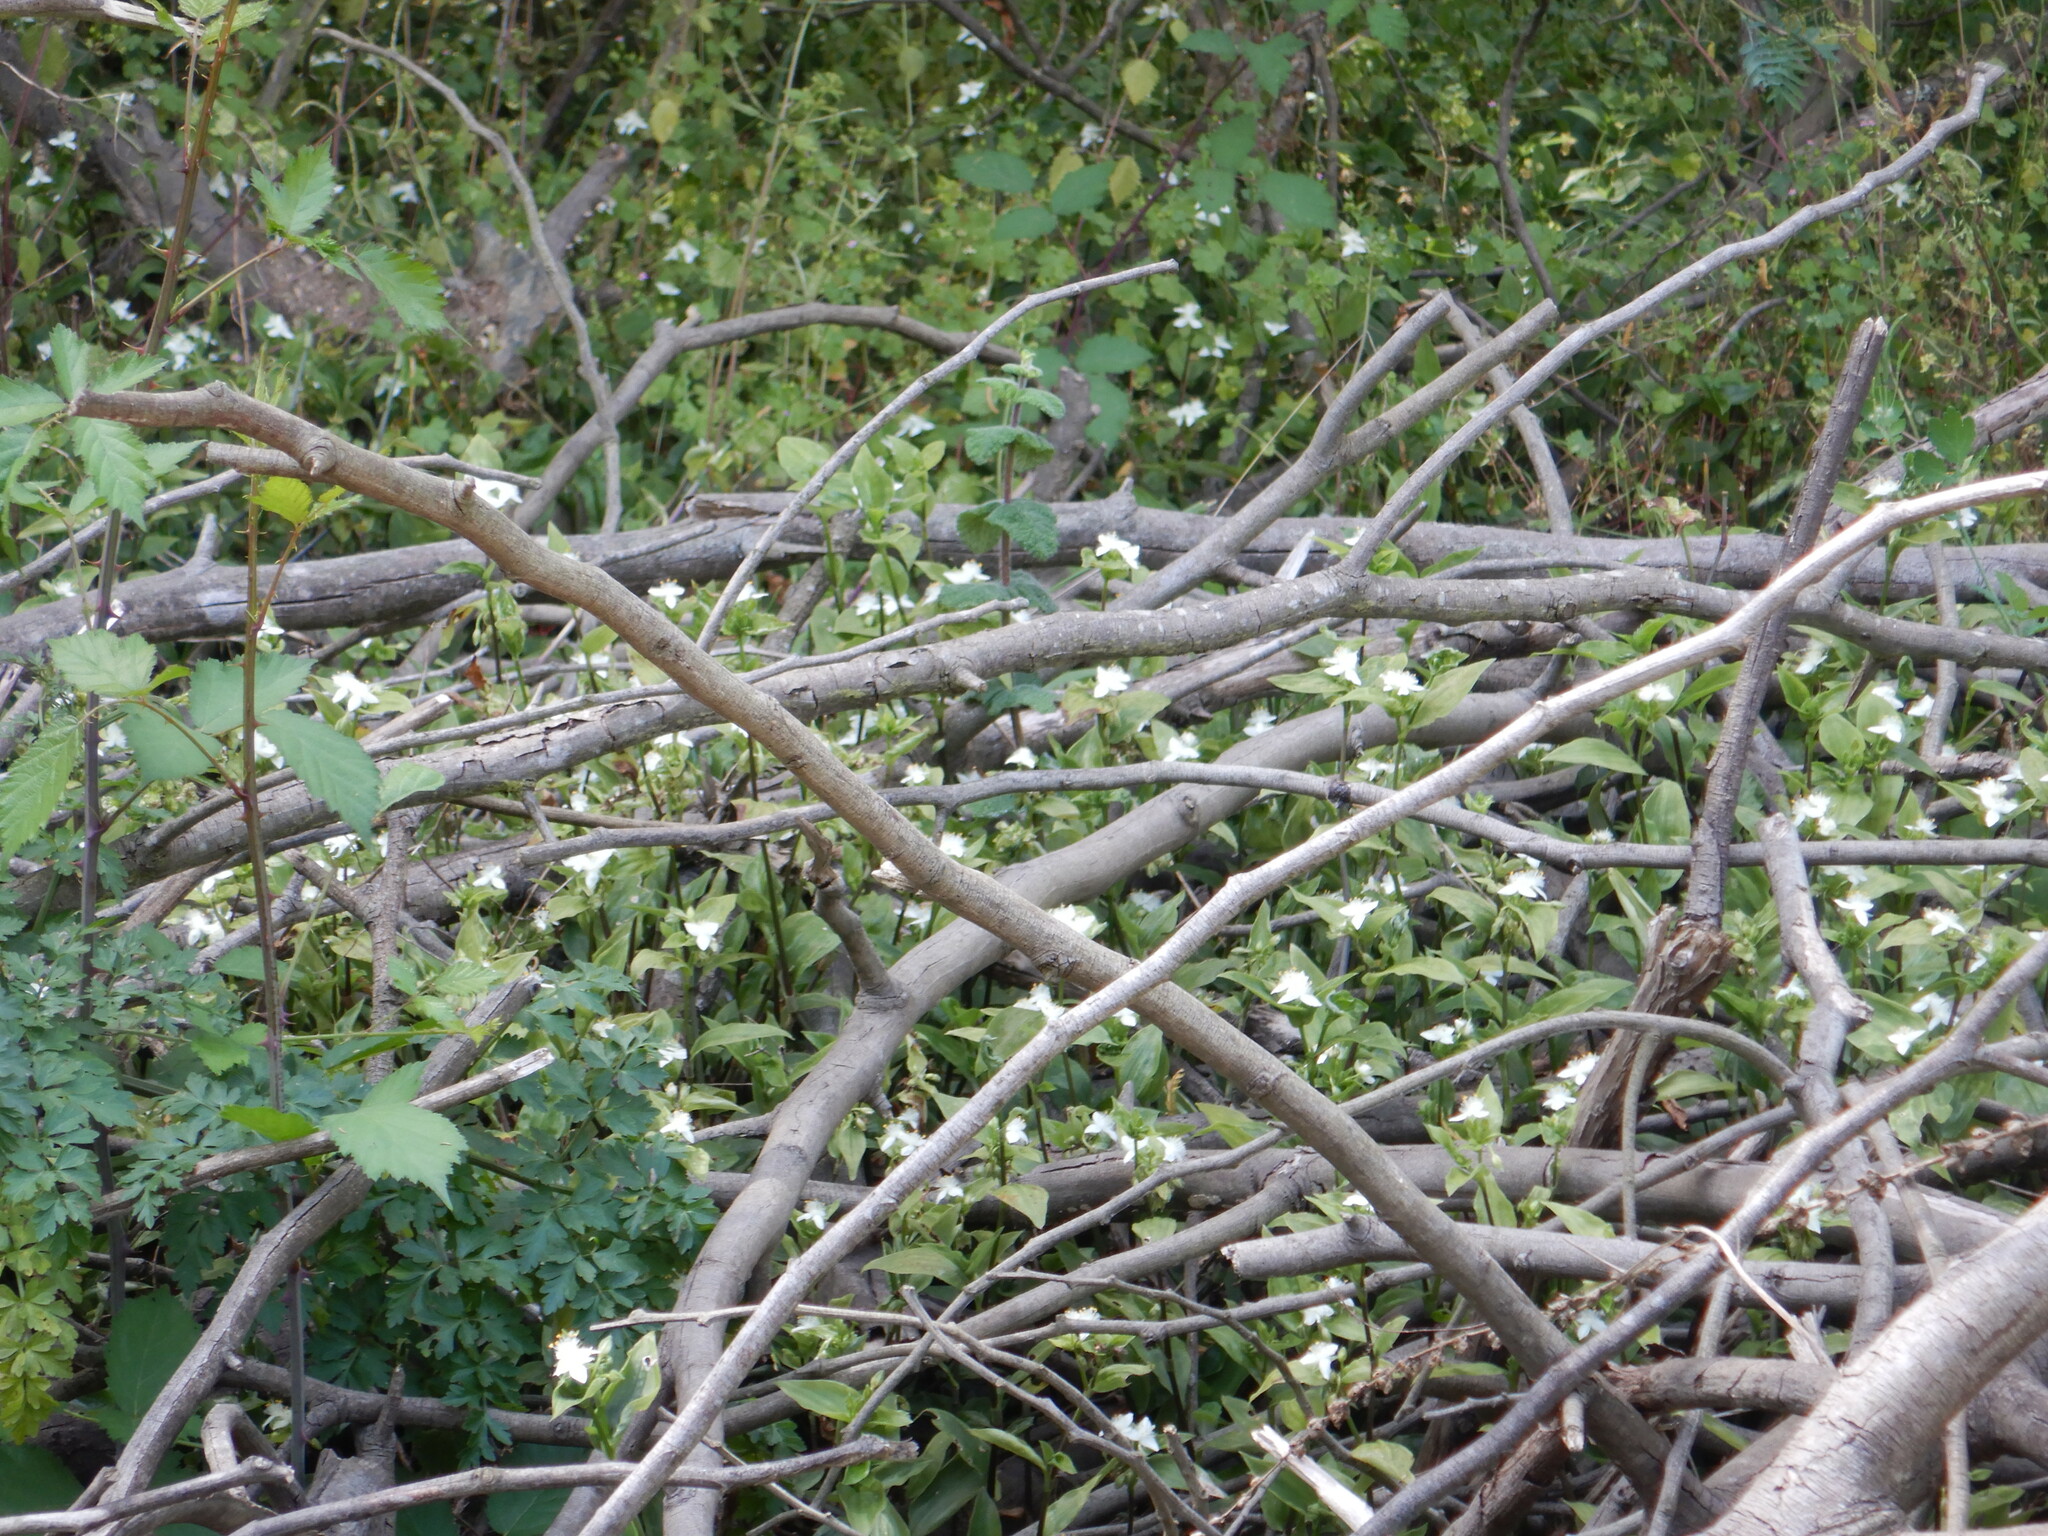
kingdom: Plantae
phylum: Tracheophyta
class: Liliopsida
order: Commelinales
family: Commelinaceae
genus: Tradescantia
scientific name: Tradescantia fluminensis
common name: Wandering-jew
